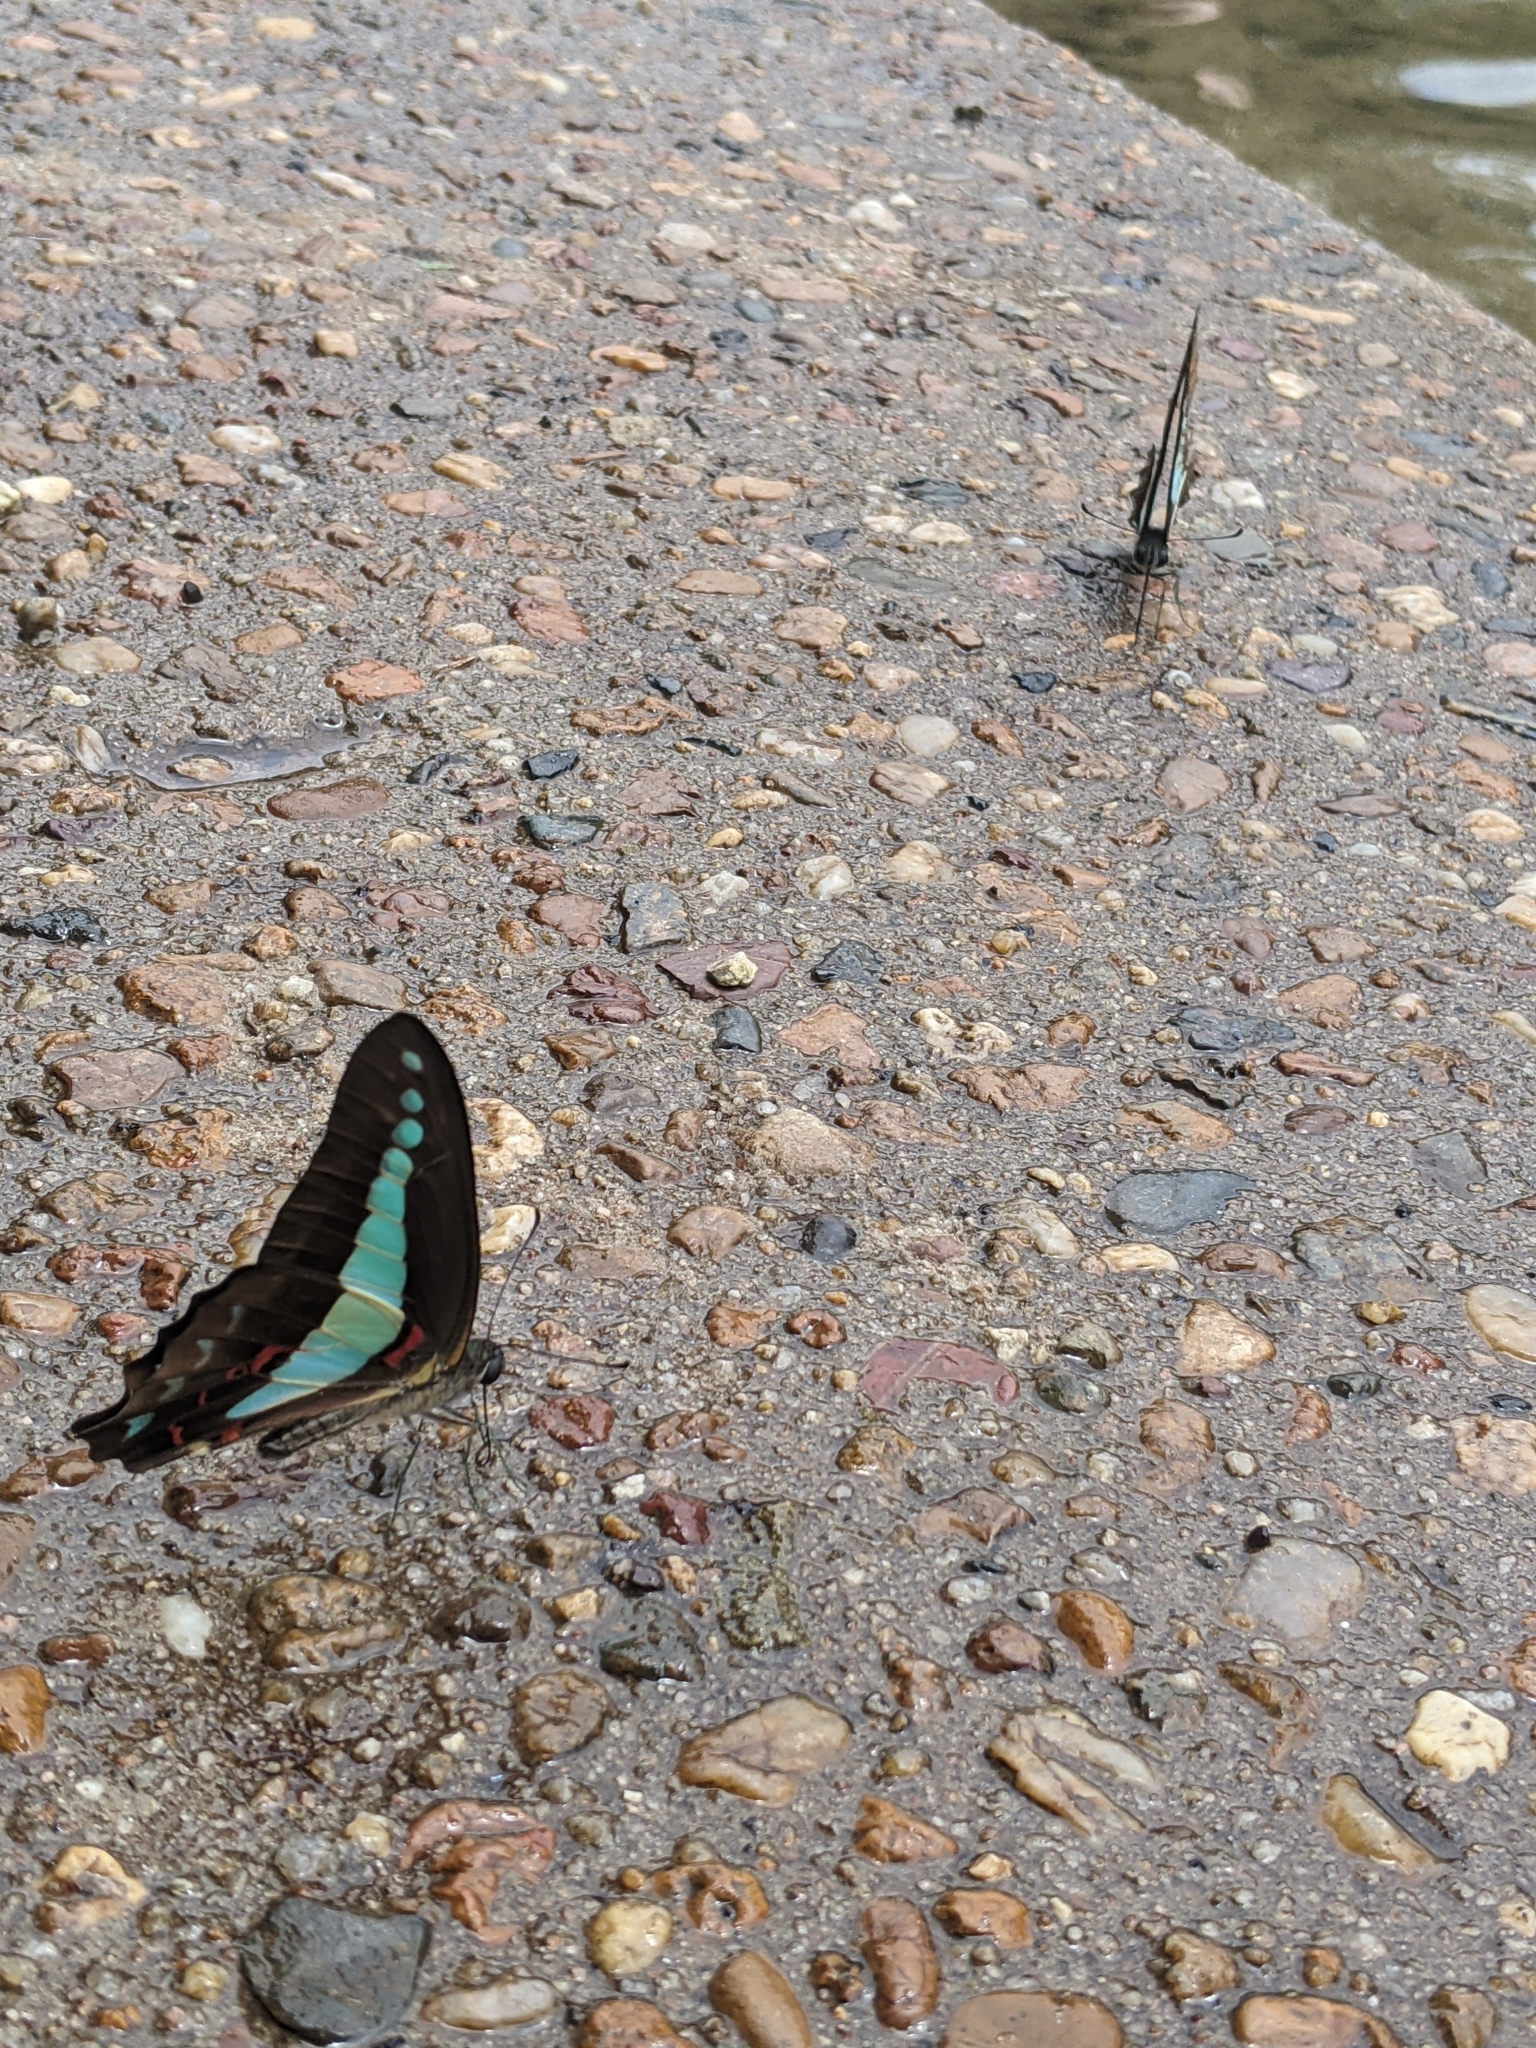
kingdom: Animalia
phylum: Arthropoda
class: Insecta
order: Lepidoptera
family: Papilionidae
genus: Graphium
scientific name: Graphium
